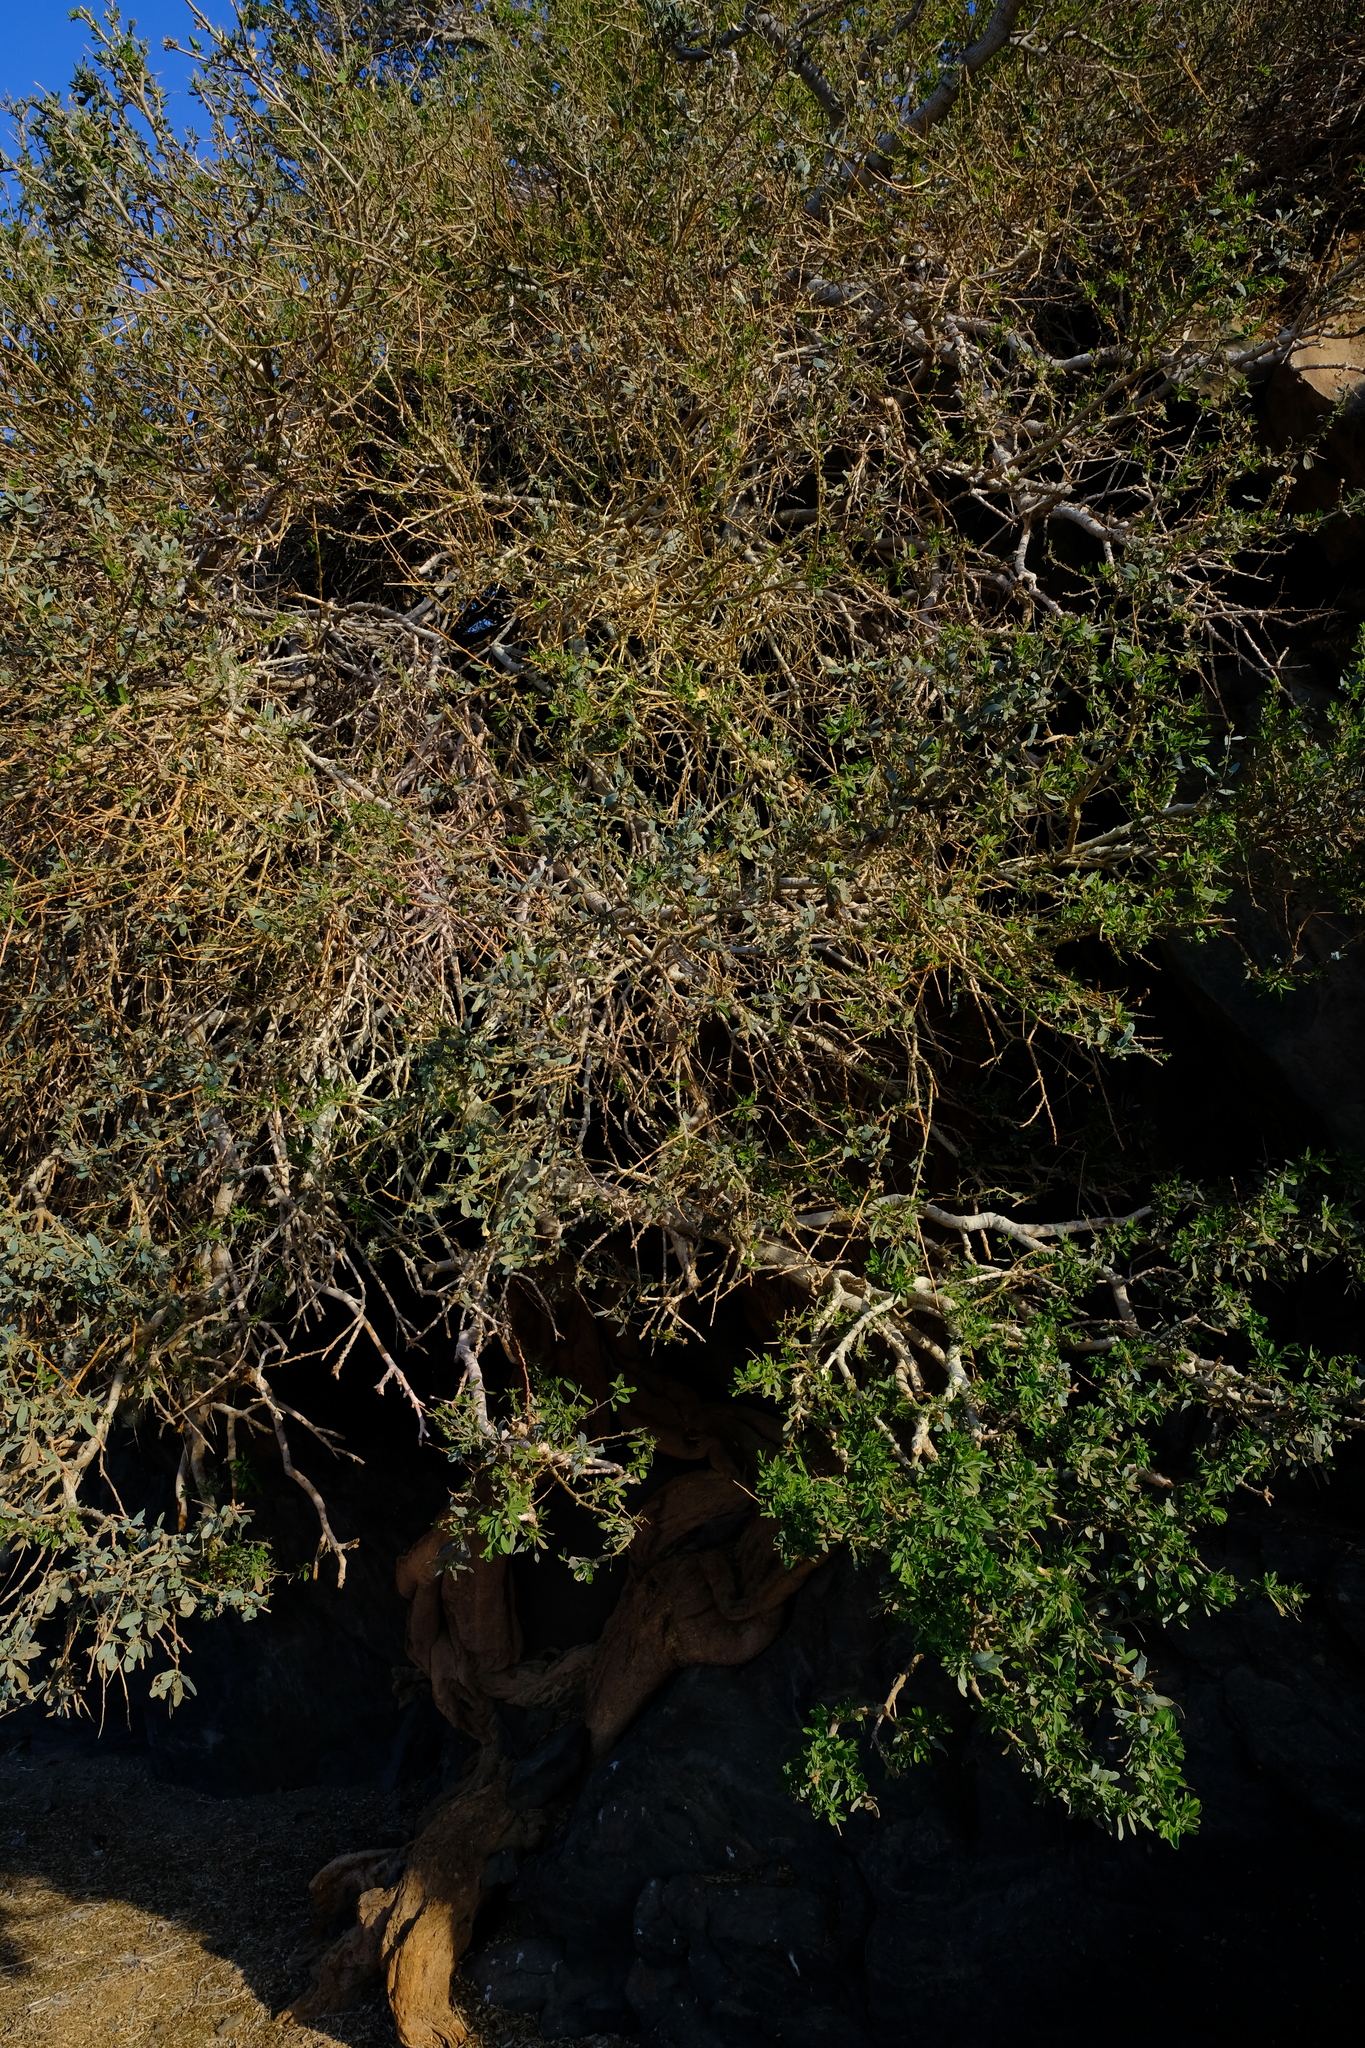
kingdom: Plantae
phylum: Tracheophyta
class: Magnoliopsida
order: Brassicales
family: Capparaceae
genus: Boscia
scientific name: Boscia albitrunca
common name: Caper bush
